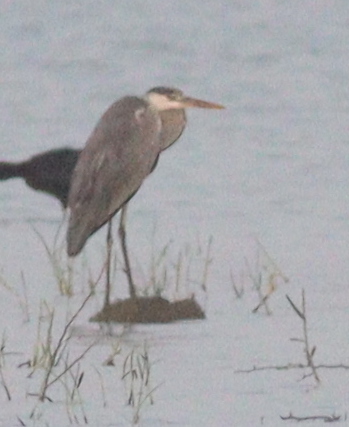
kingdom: Animalia
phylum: Chordata
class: Aves
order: Pelecaniformes
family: Ardeidae
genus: Ardea
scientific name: Ardea cinerea
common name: Grey heron
